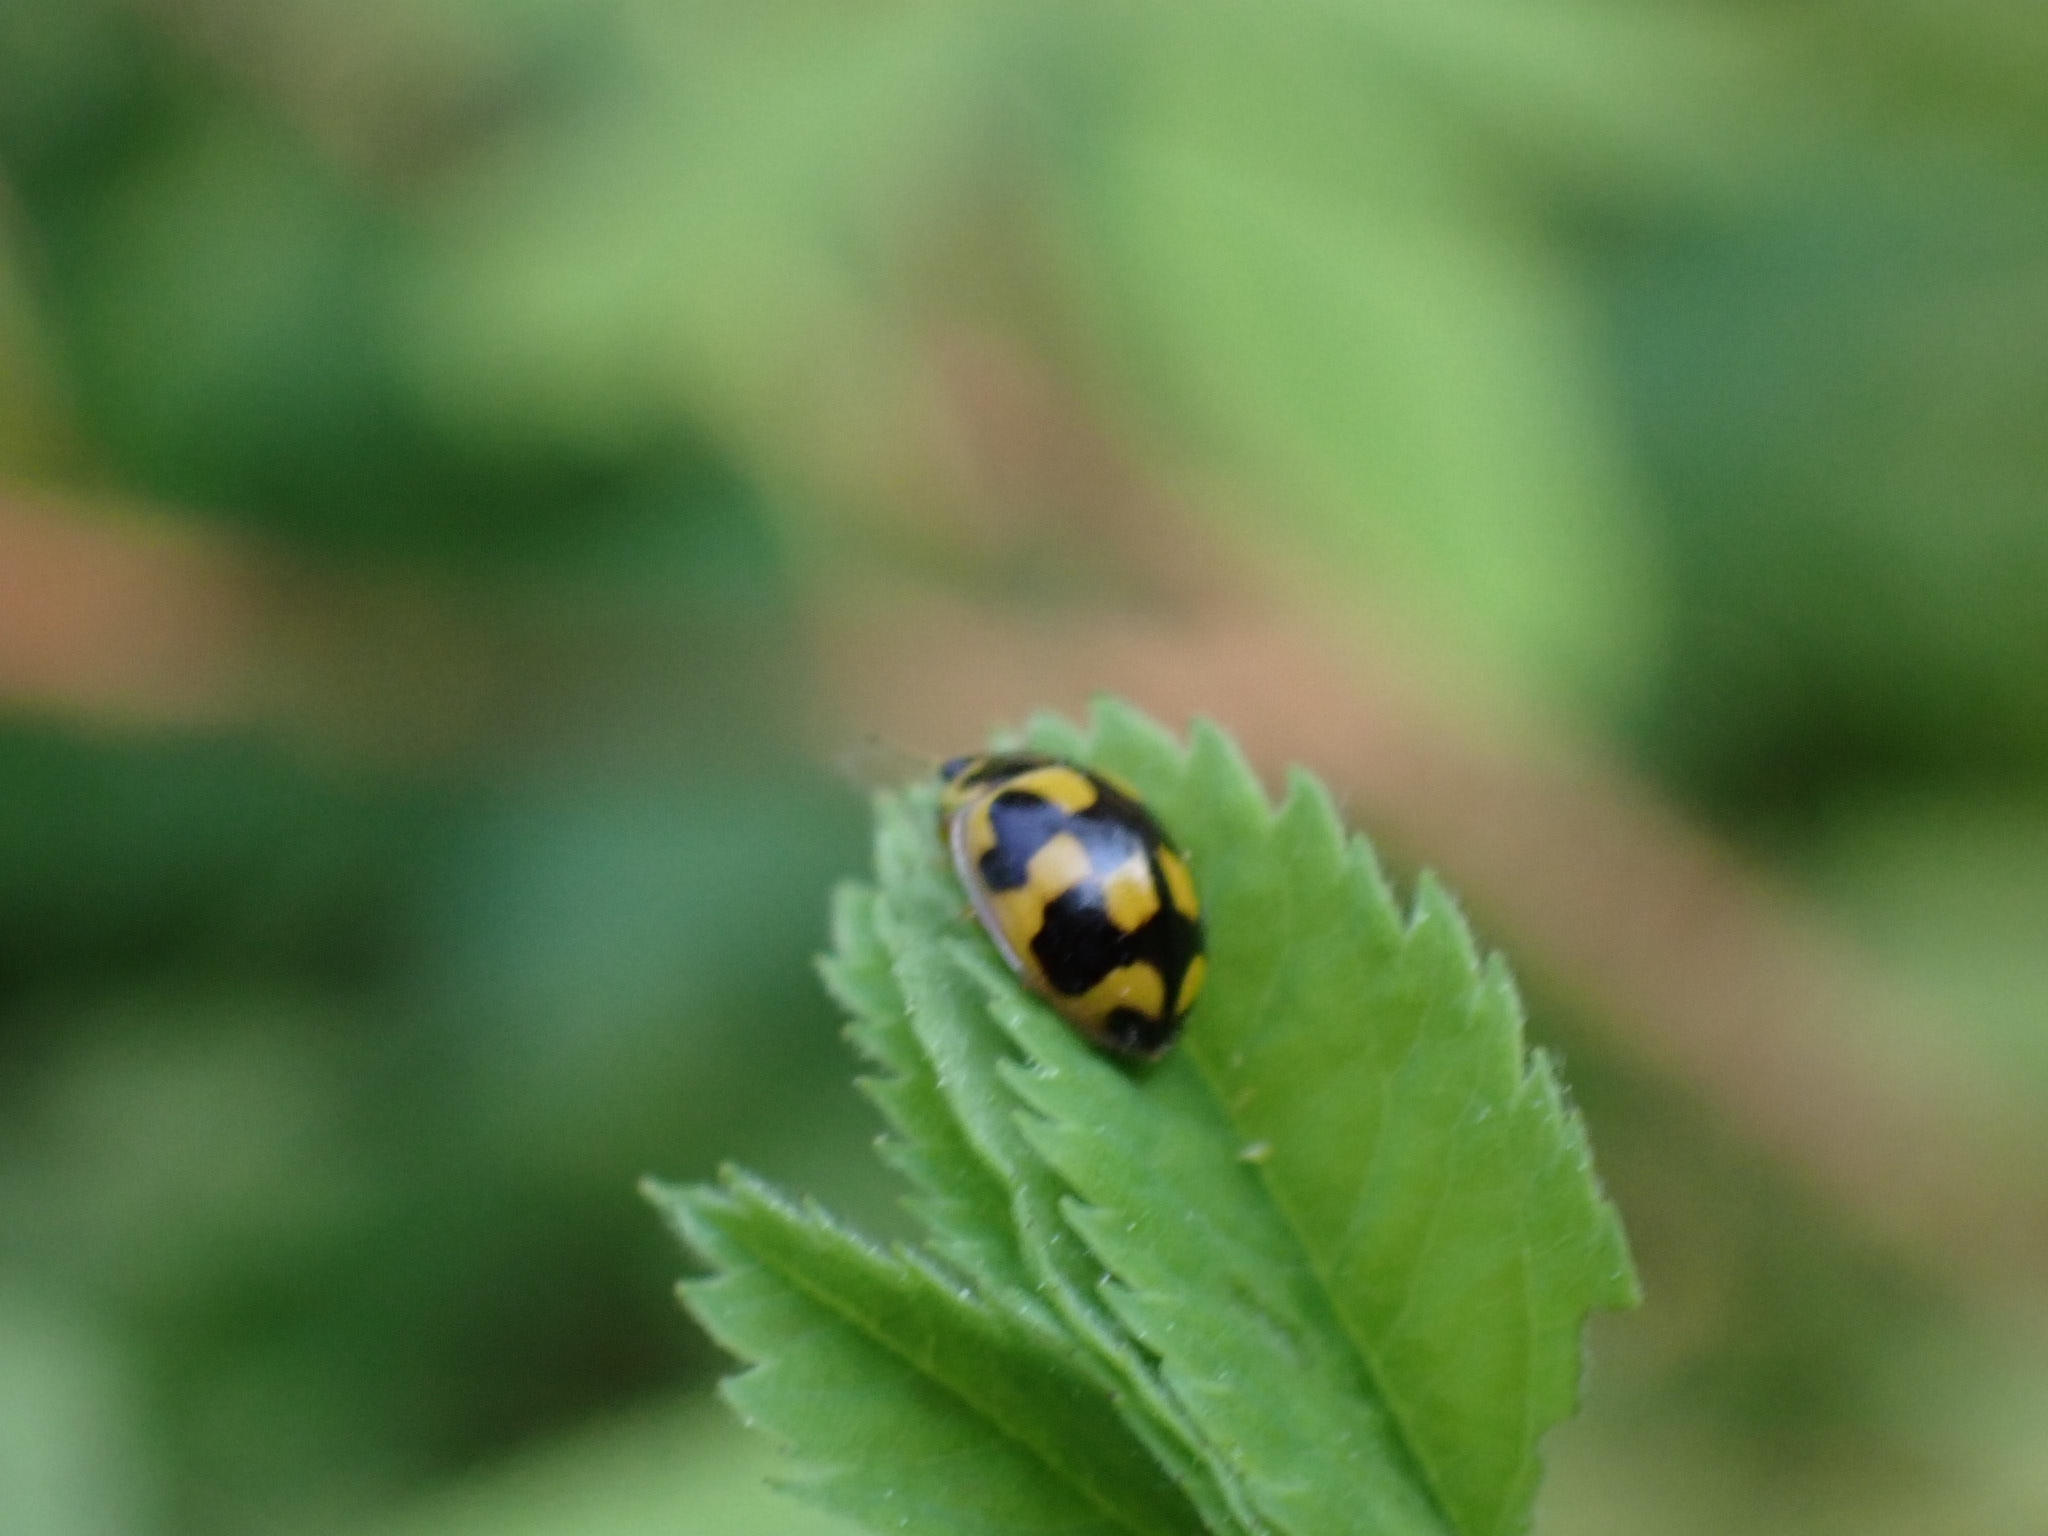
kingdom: Animalia
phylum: Arthropoda
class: Insecta
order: Coleoptera
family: Coccinellidae
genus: Propylaea
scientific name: Propylaea quatuordecimpunctata
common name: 14-spotted ladybird beetle
